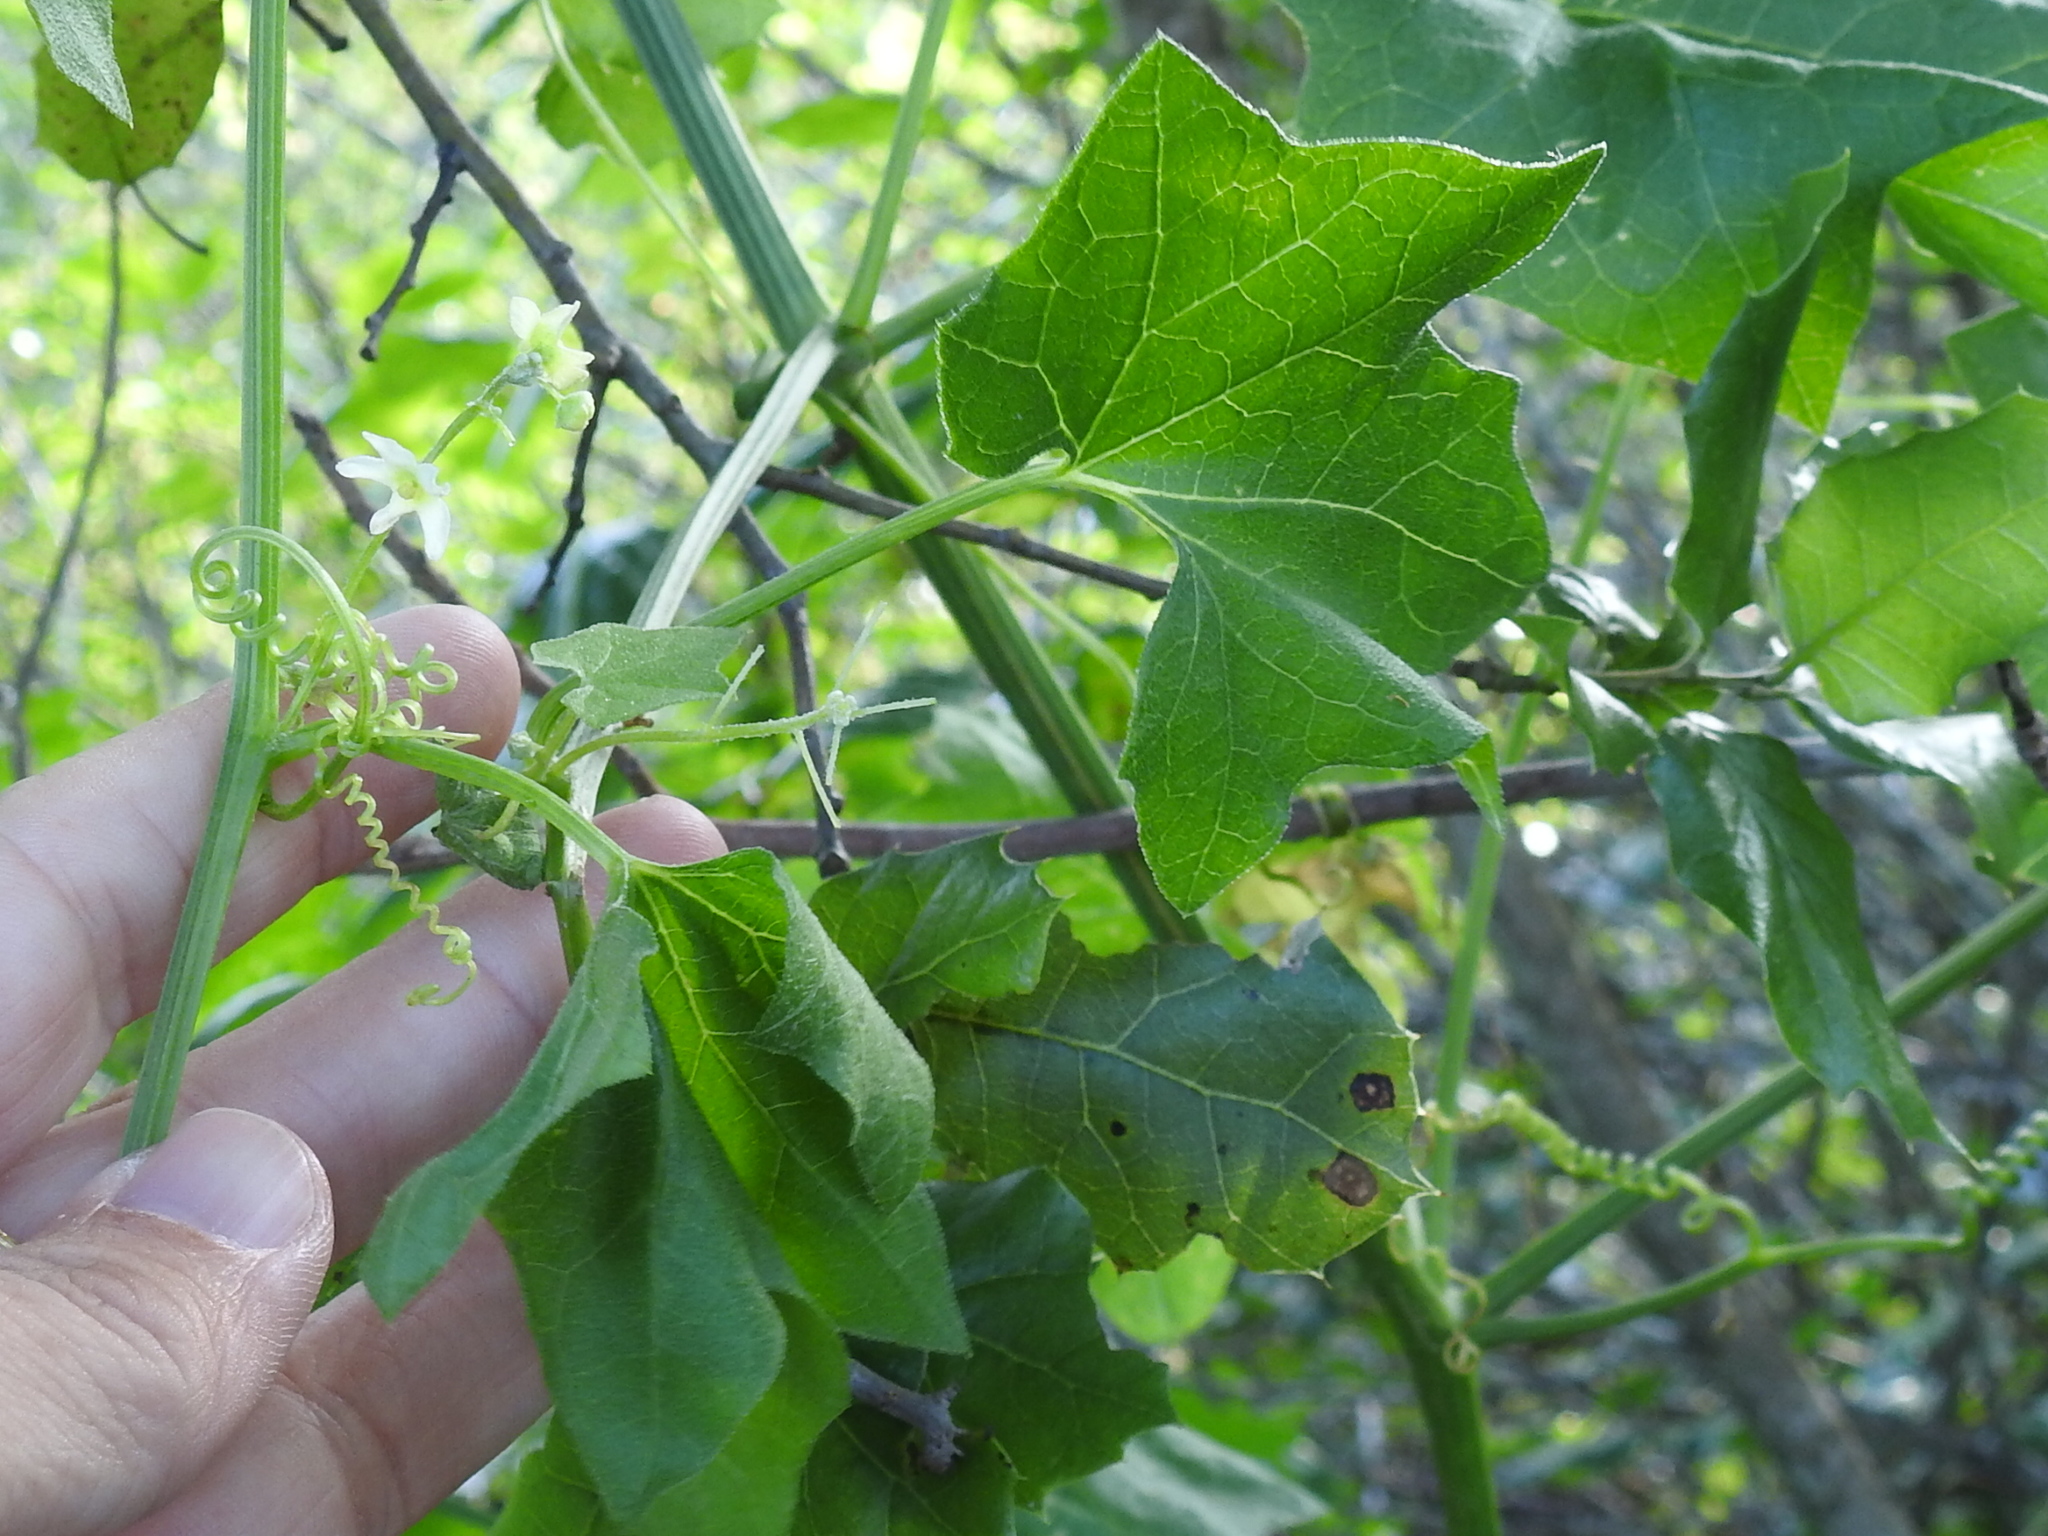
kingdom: Plantae
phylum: Tracheophyta
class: Magnoliopsida
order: Cucurbitales
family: Cucurbitaceae
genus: Marah
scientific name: Marah fabacea
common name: California manroot
